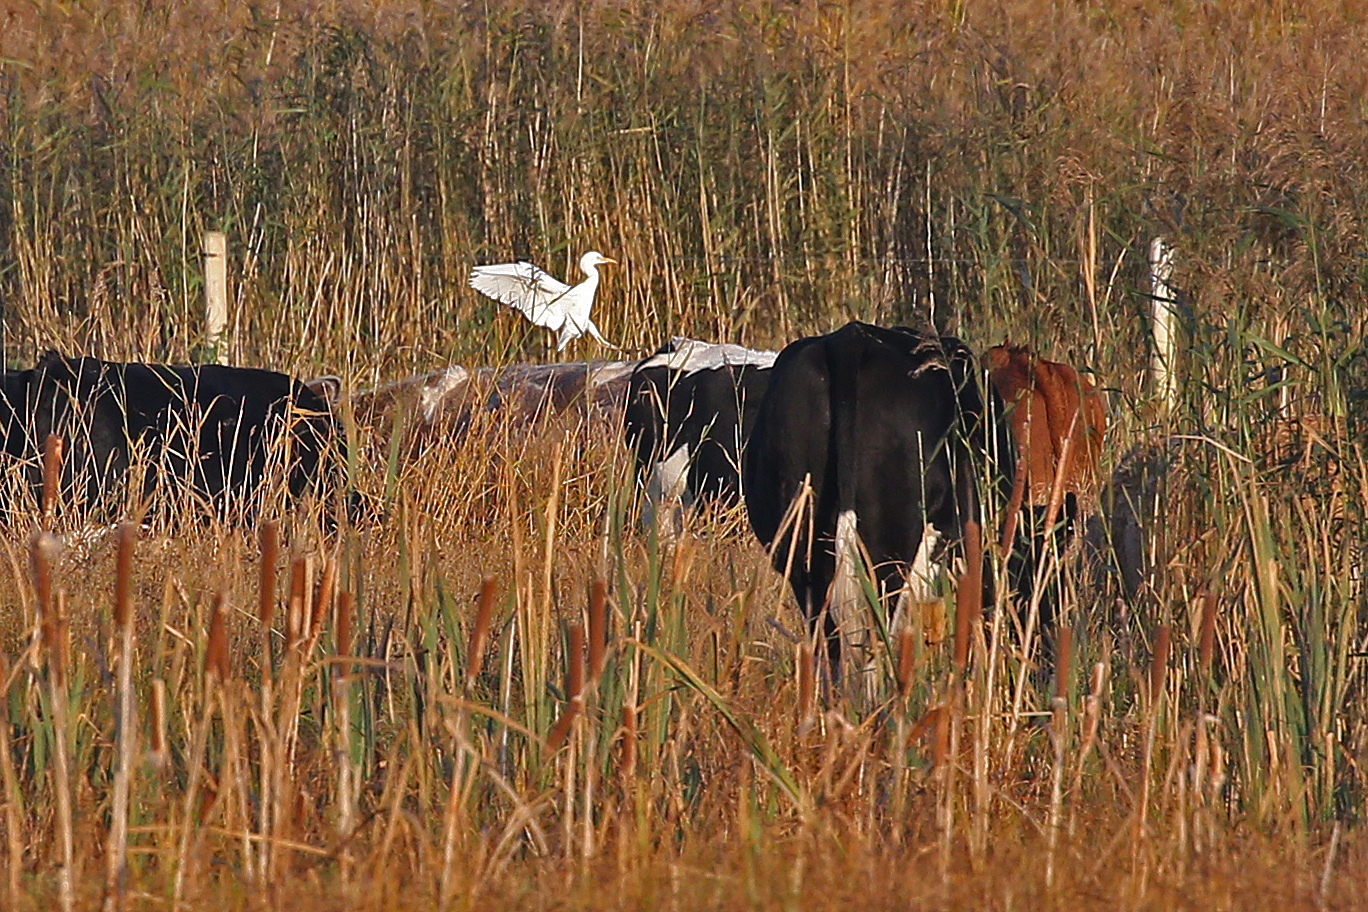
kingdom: Animalia
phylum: Chordata
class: Aves
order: Pelecaniformes
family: Ardeidae
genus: Bubulcus
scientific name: Bubulcus ibis
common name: Cattle egret
